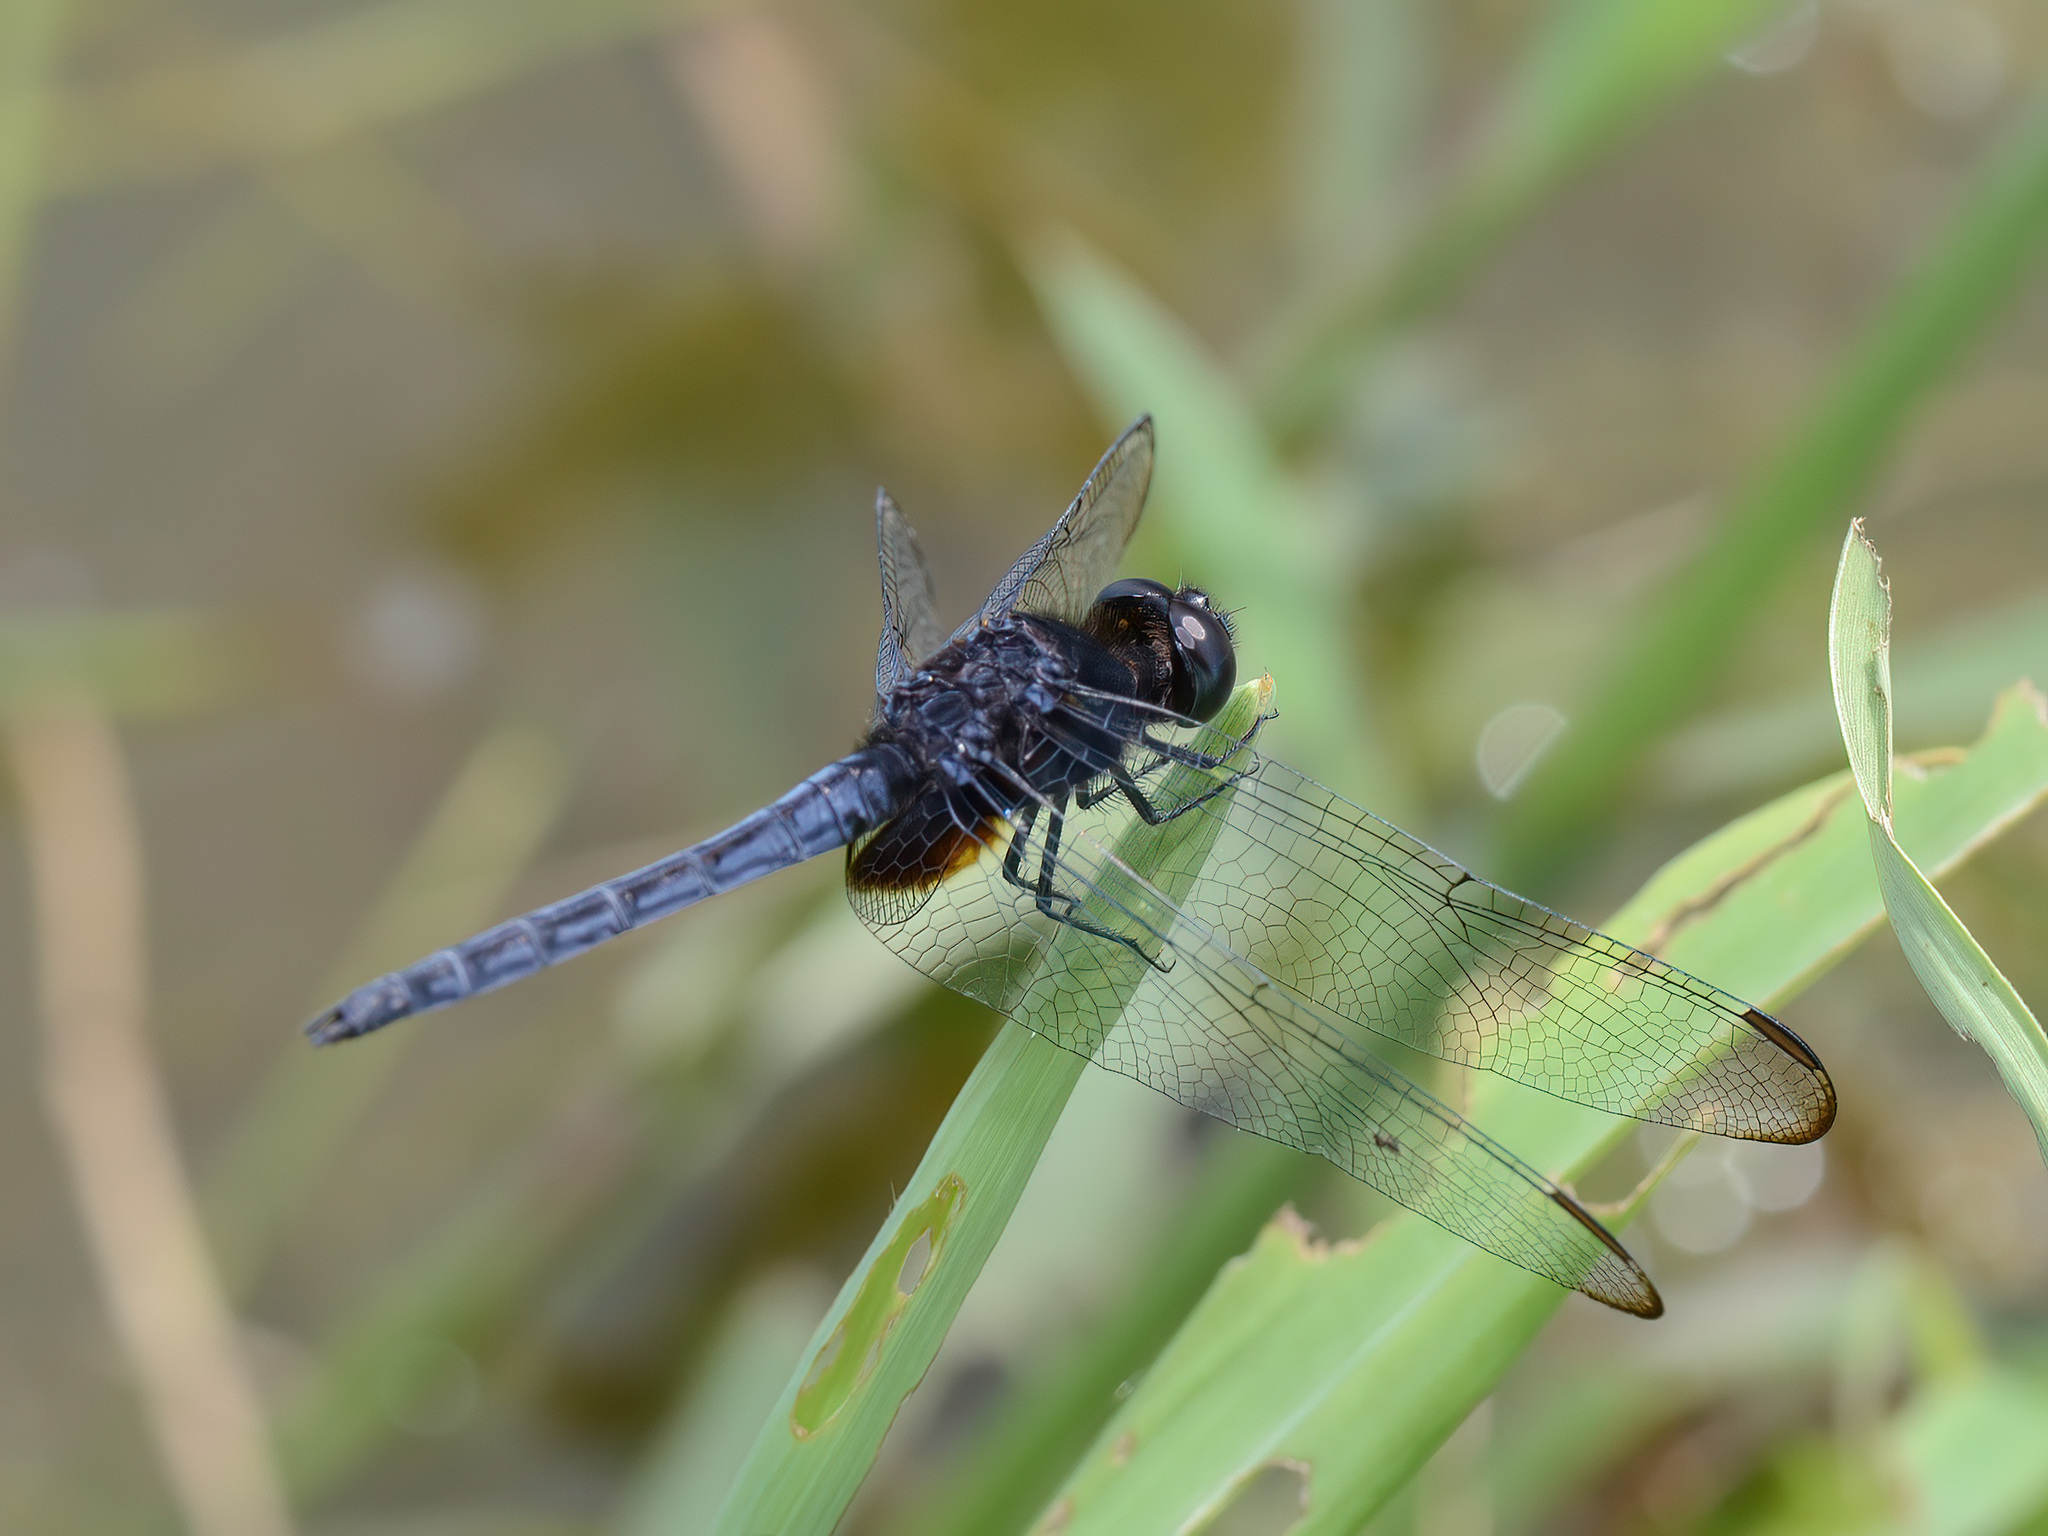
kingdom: Animalia
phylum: Arthropoda
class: Insecta
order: Odonata
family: Libellulidae
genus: Indothemis
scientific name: Indothemis limbata
